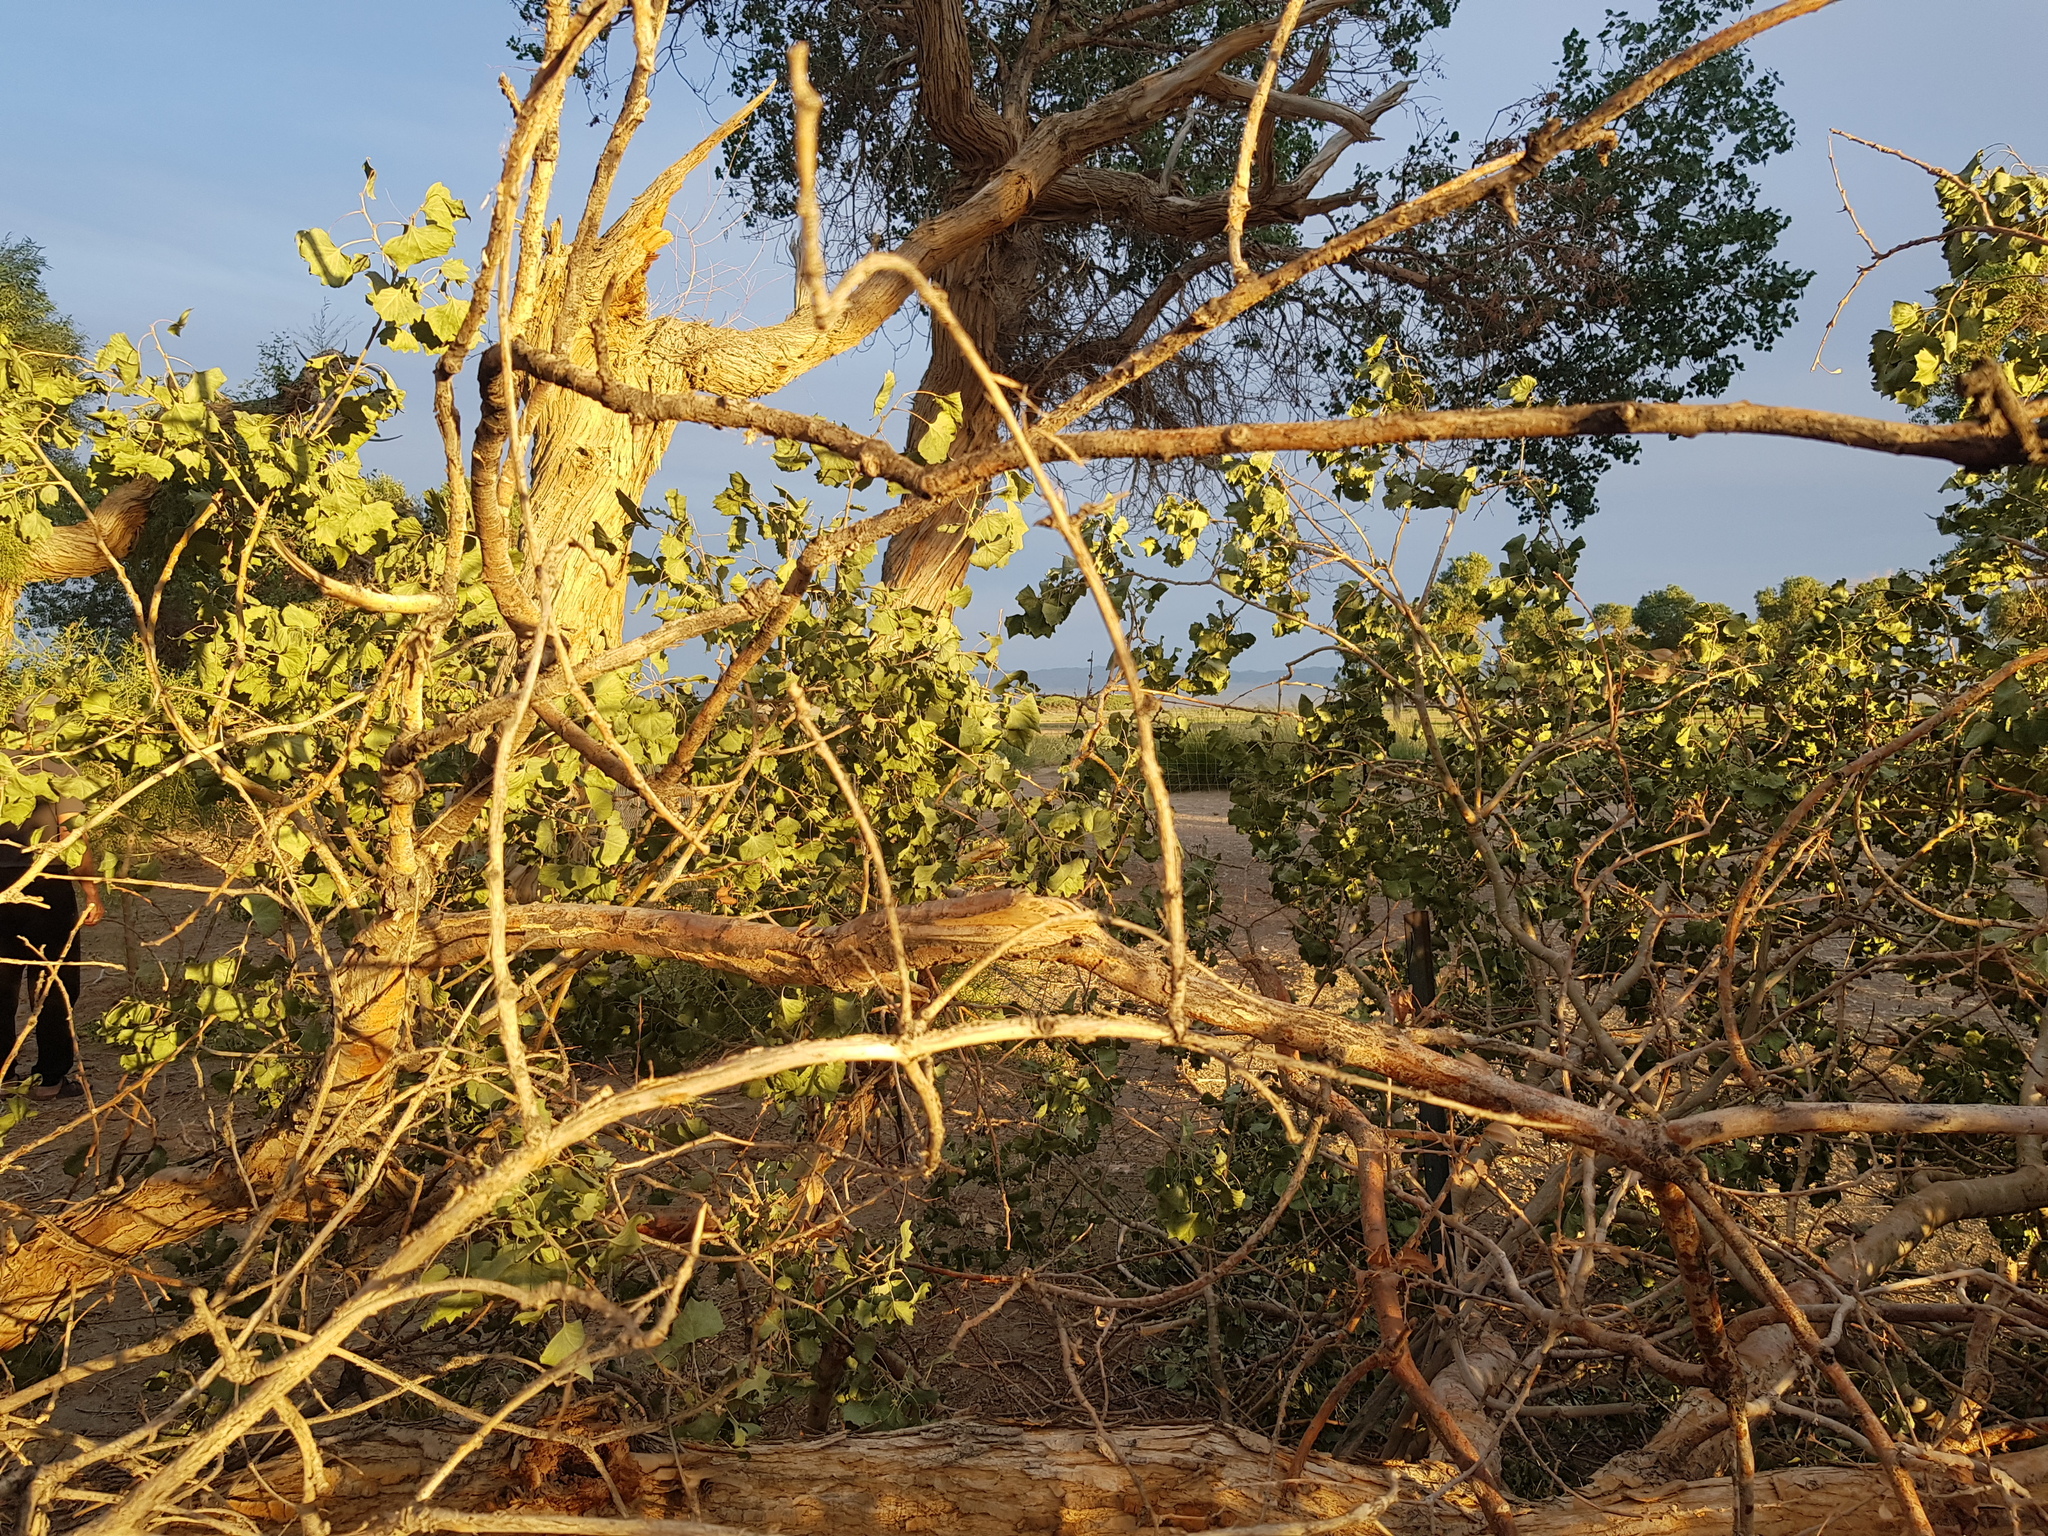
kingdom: Plantae
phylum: Tracheophyta
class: Magnoliopsida
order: Malpighiales
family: Salicaceae
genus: Populus
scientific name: Populus euphratica
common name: Euphrates poplar
